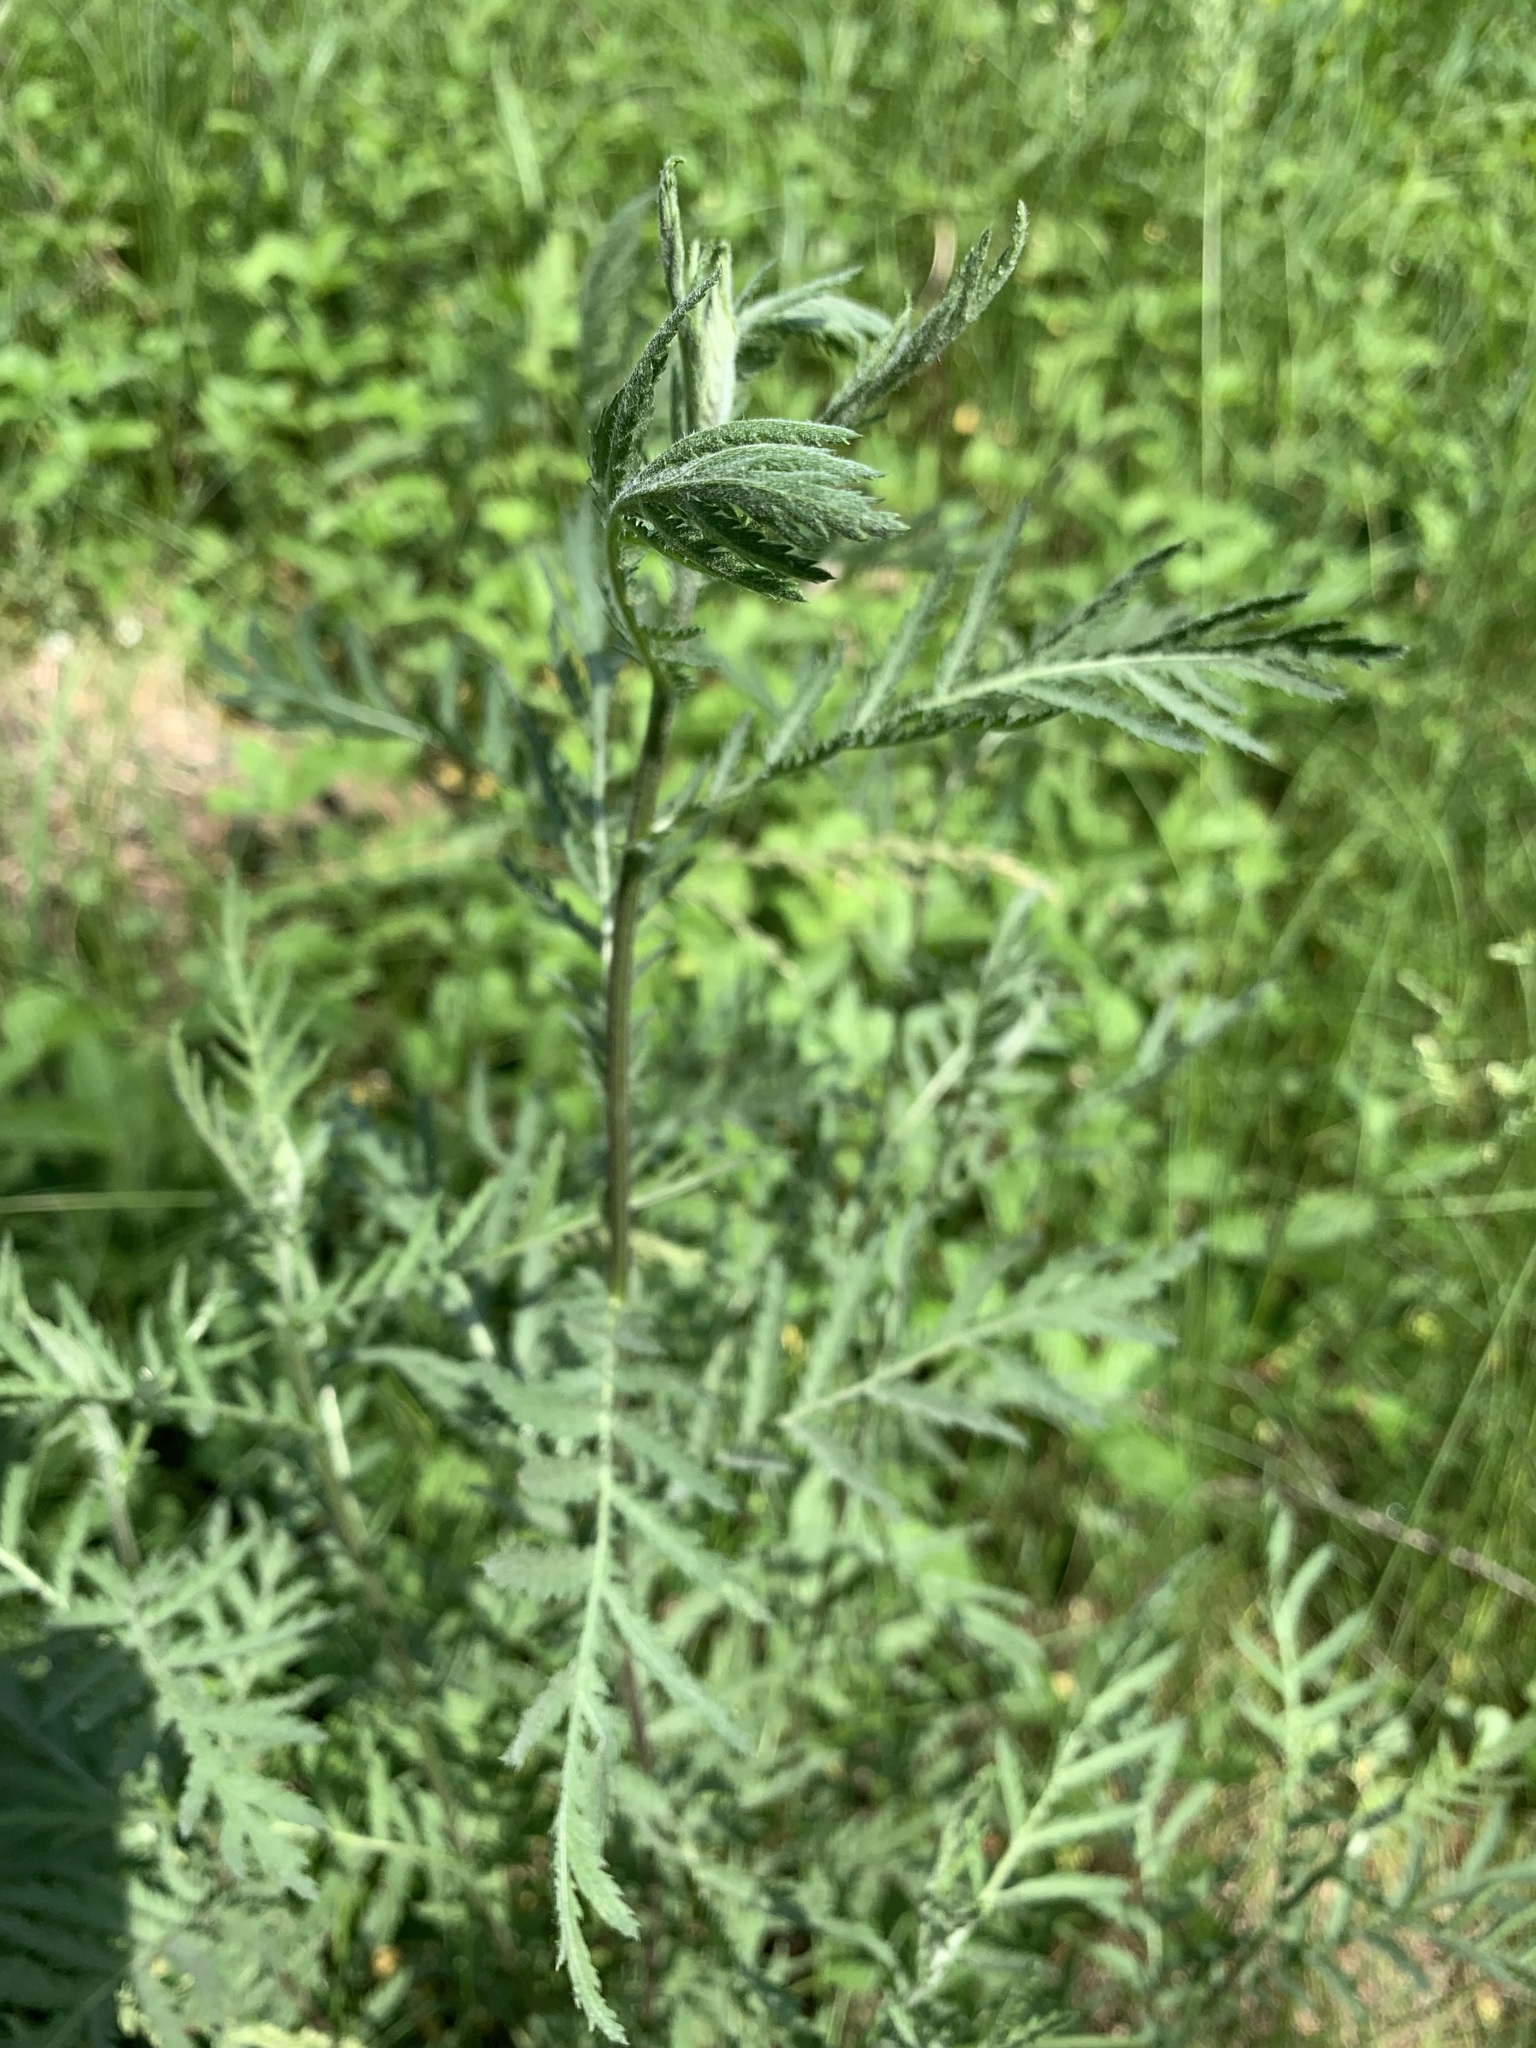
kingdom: Plantae
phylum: Tracheophyta
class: Magnoliopsida
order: Asterales
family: Asteraceae
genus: Tanacetum
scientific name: Tanacetum vulgare
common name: Common tansy
